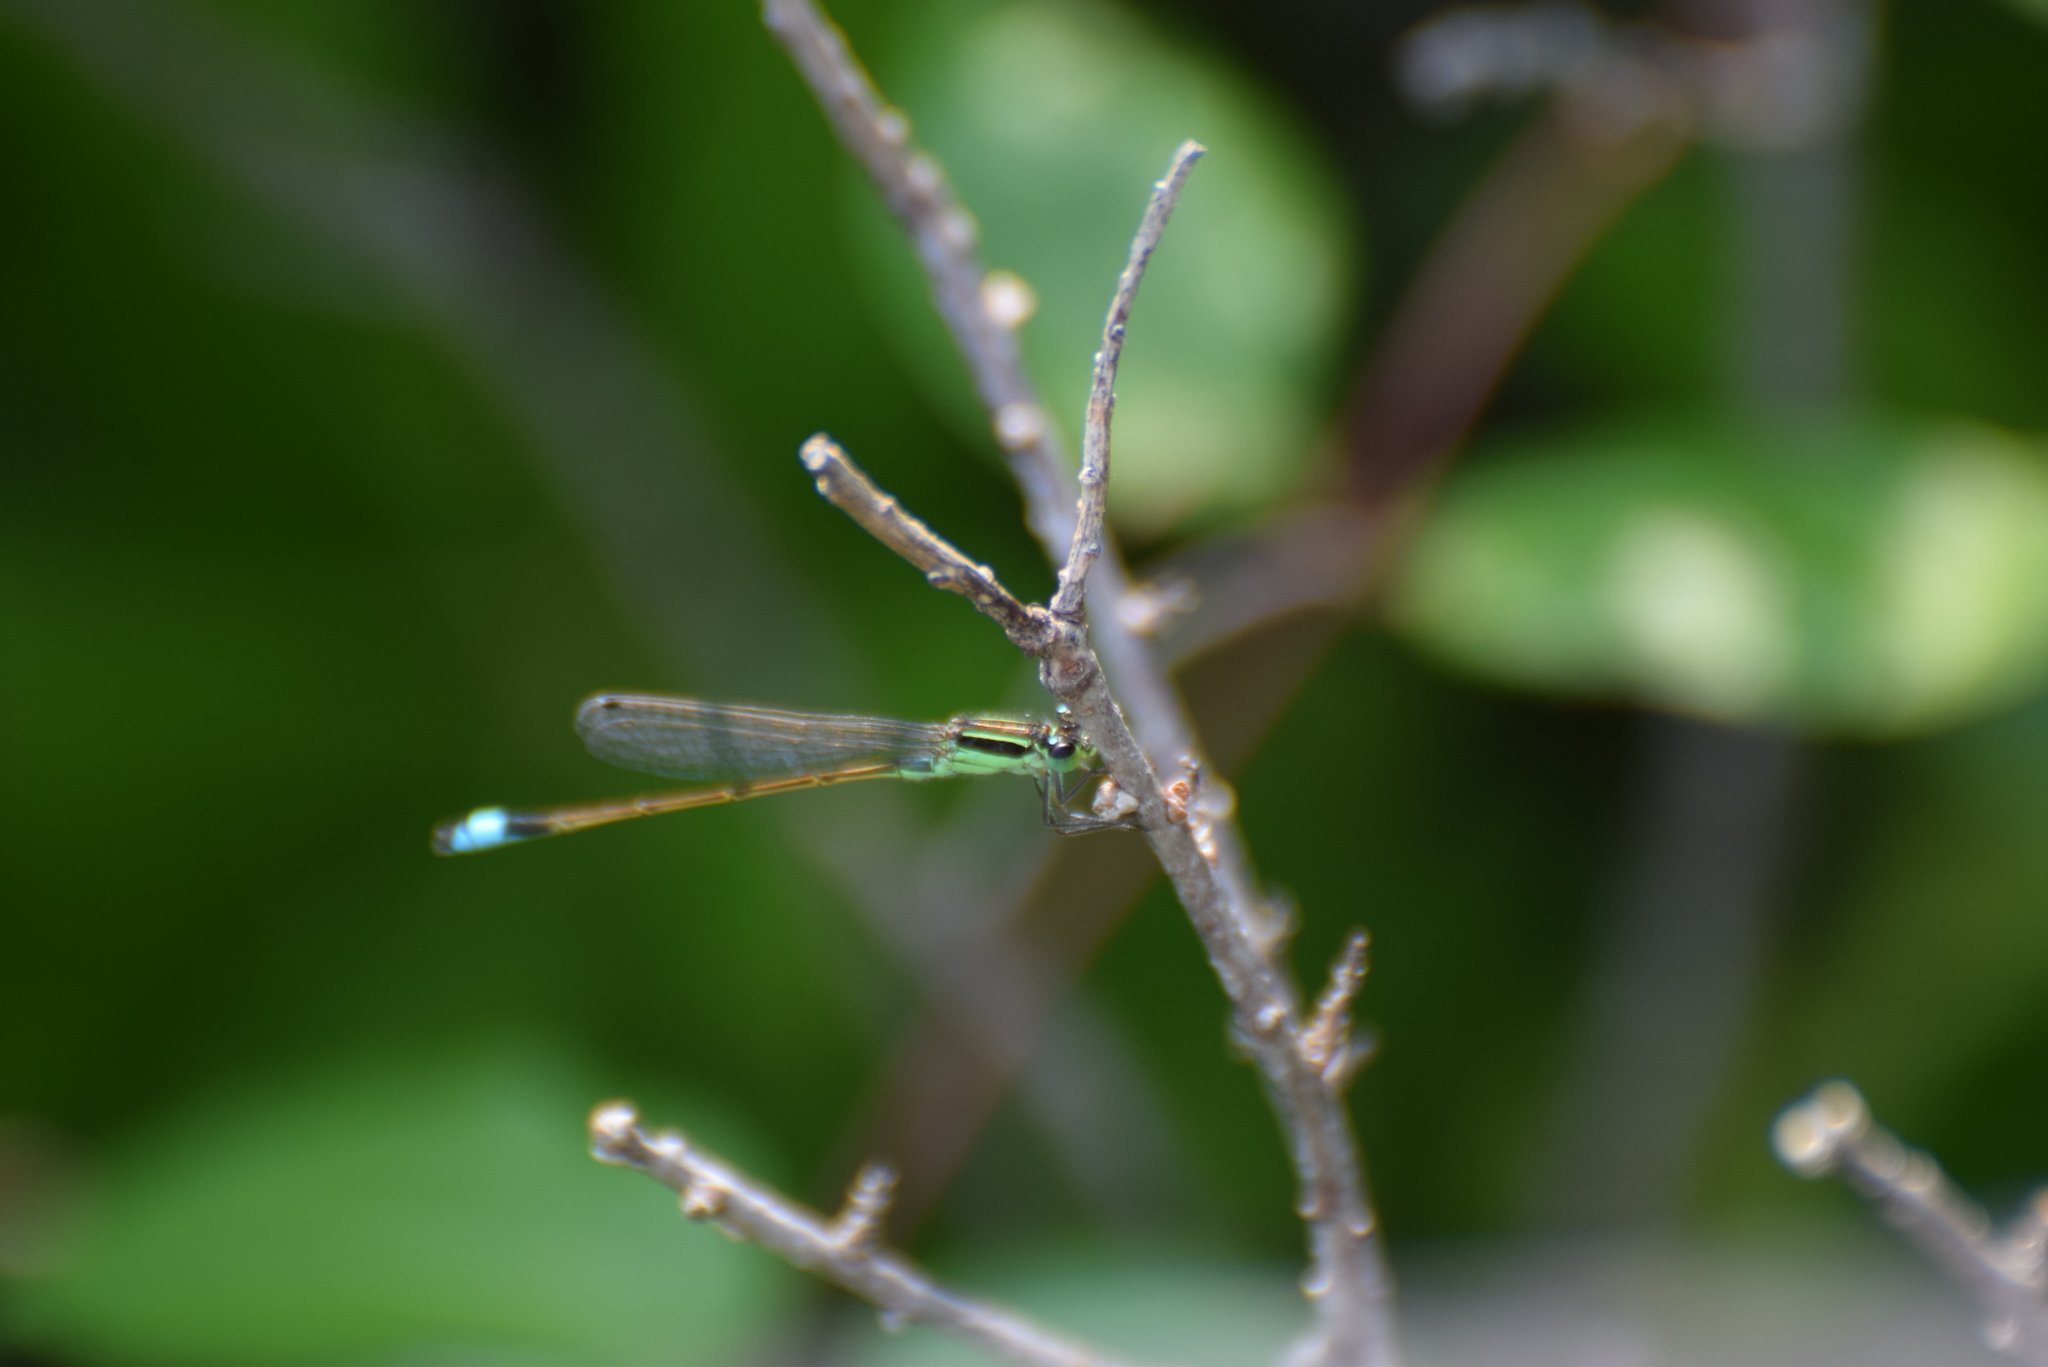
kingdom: Animalia
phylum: Arthropoda
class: Insecta
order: Odonata
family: Coenagrionidae
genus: Ischnura
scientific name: Ischnura ramburii
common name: Rambur's forktail
